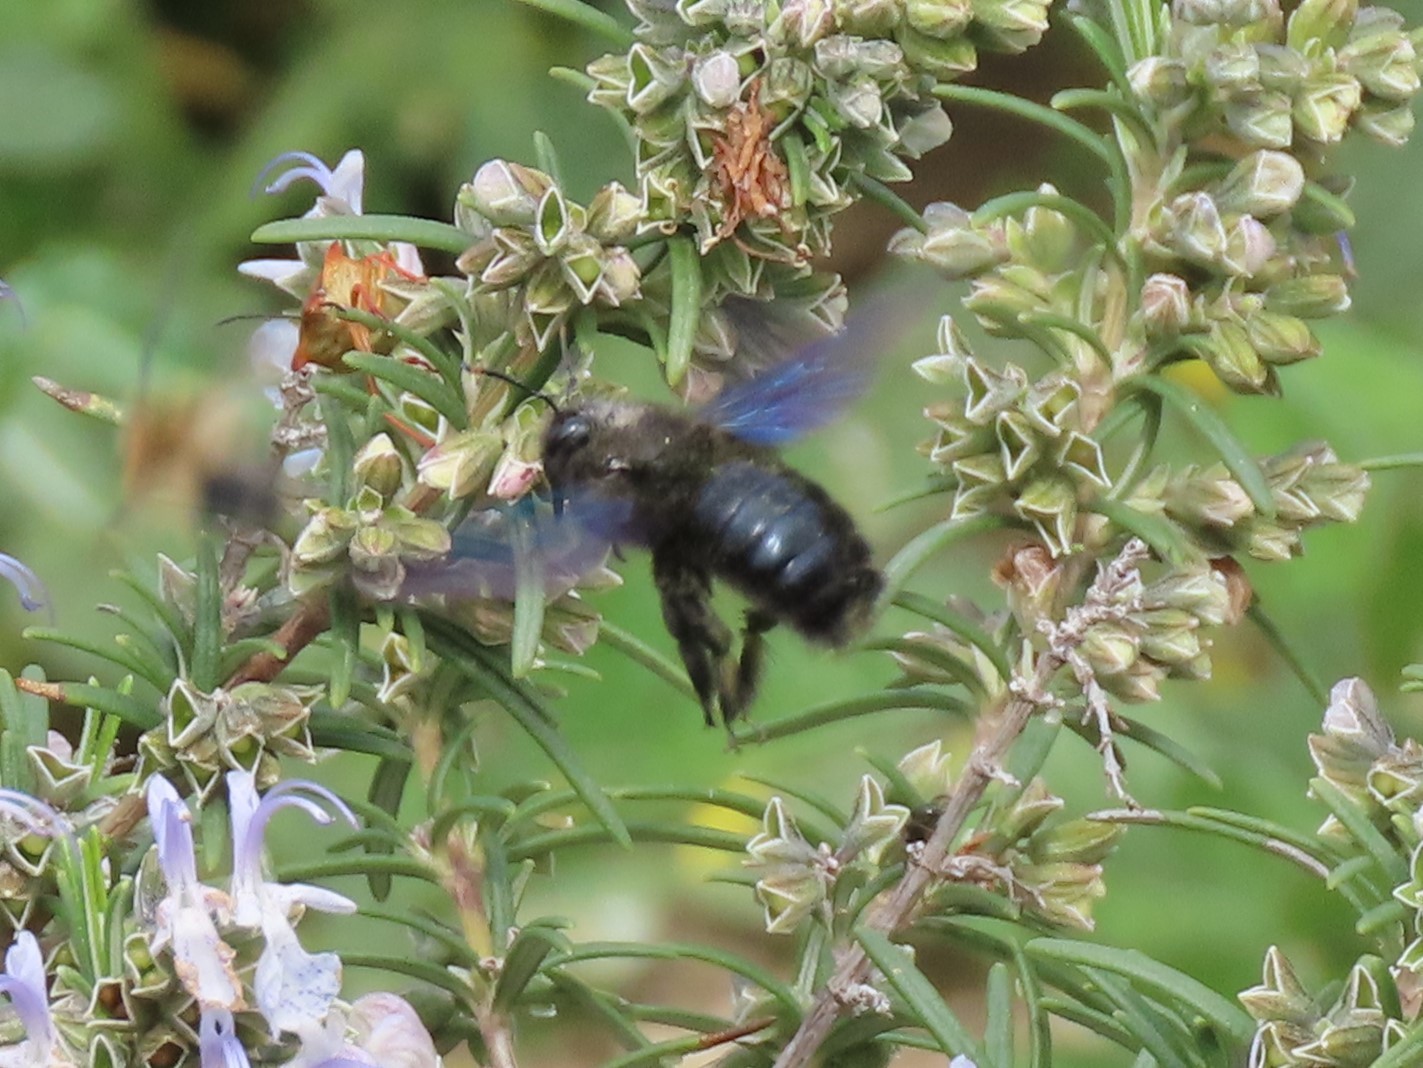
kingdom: Animalia
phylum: Arthropoda
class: Insecta
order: Hymenoptera
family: Apidae
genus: Xylocopa
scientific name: Xylocopa violacea
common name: Violet carpenter bee
